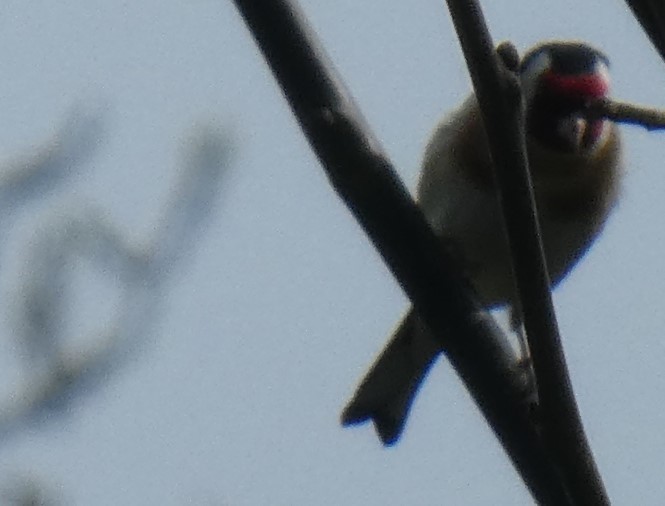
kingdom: Animalia
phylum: Chordata
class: Aves
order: Passeriformes
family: Fringillidae
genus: Carduelis
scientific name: Carduelis carduelis
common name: European goldfinch
